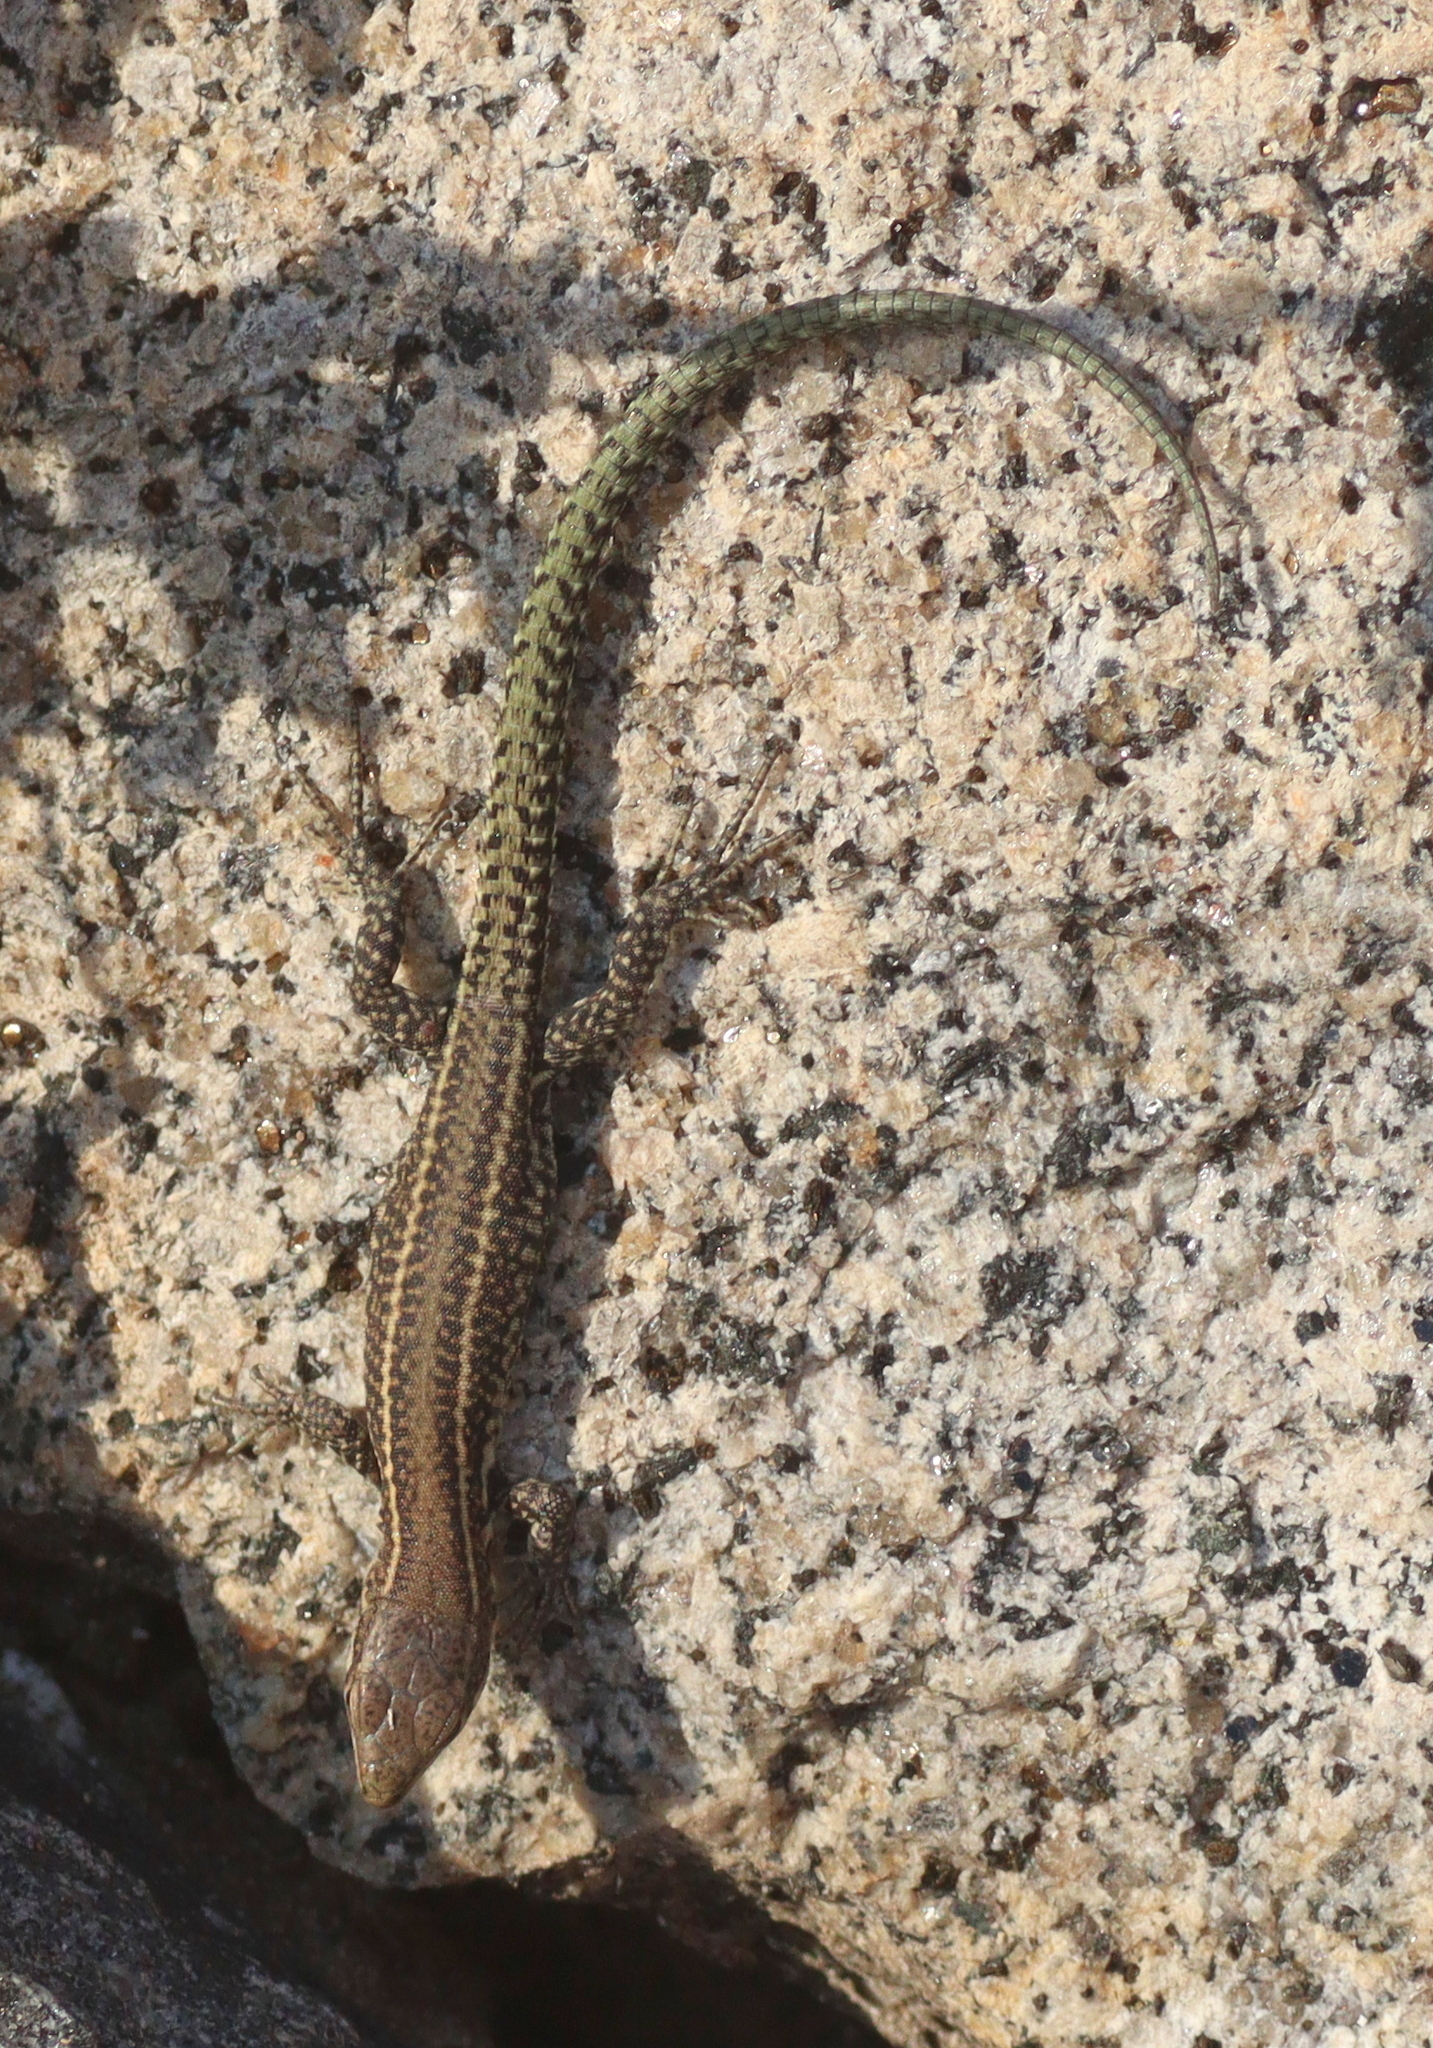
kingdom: Animalia
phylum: Chordata
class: Squamata
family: Lacertidae
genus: Podarcis
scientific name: Podarcis bocagei
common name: Bocage's wall lizard
